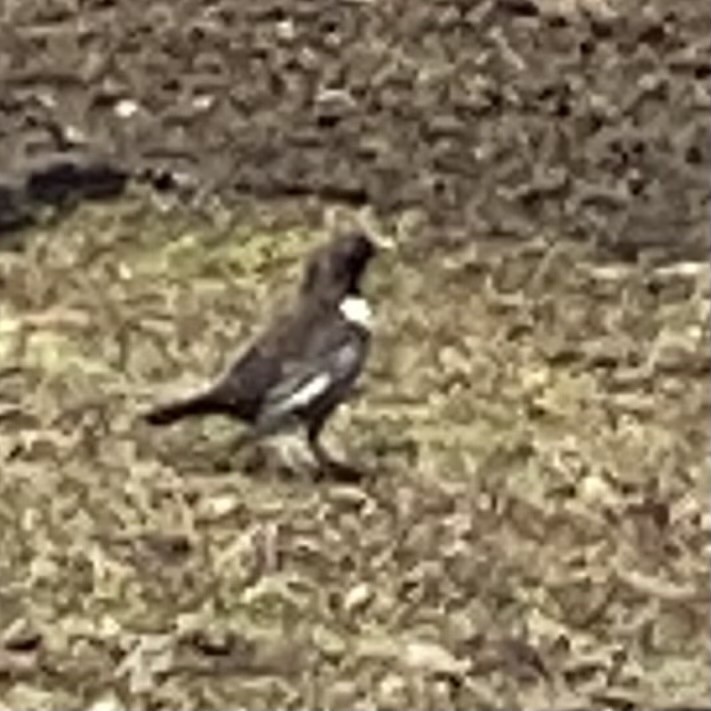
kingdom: Animalia
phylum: Chordata
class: Aves
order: Passeriformes
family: Turdidae
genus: Turdus
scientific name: Turdus torquatus
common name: Ring ouzel
